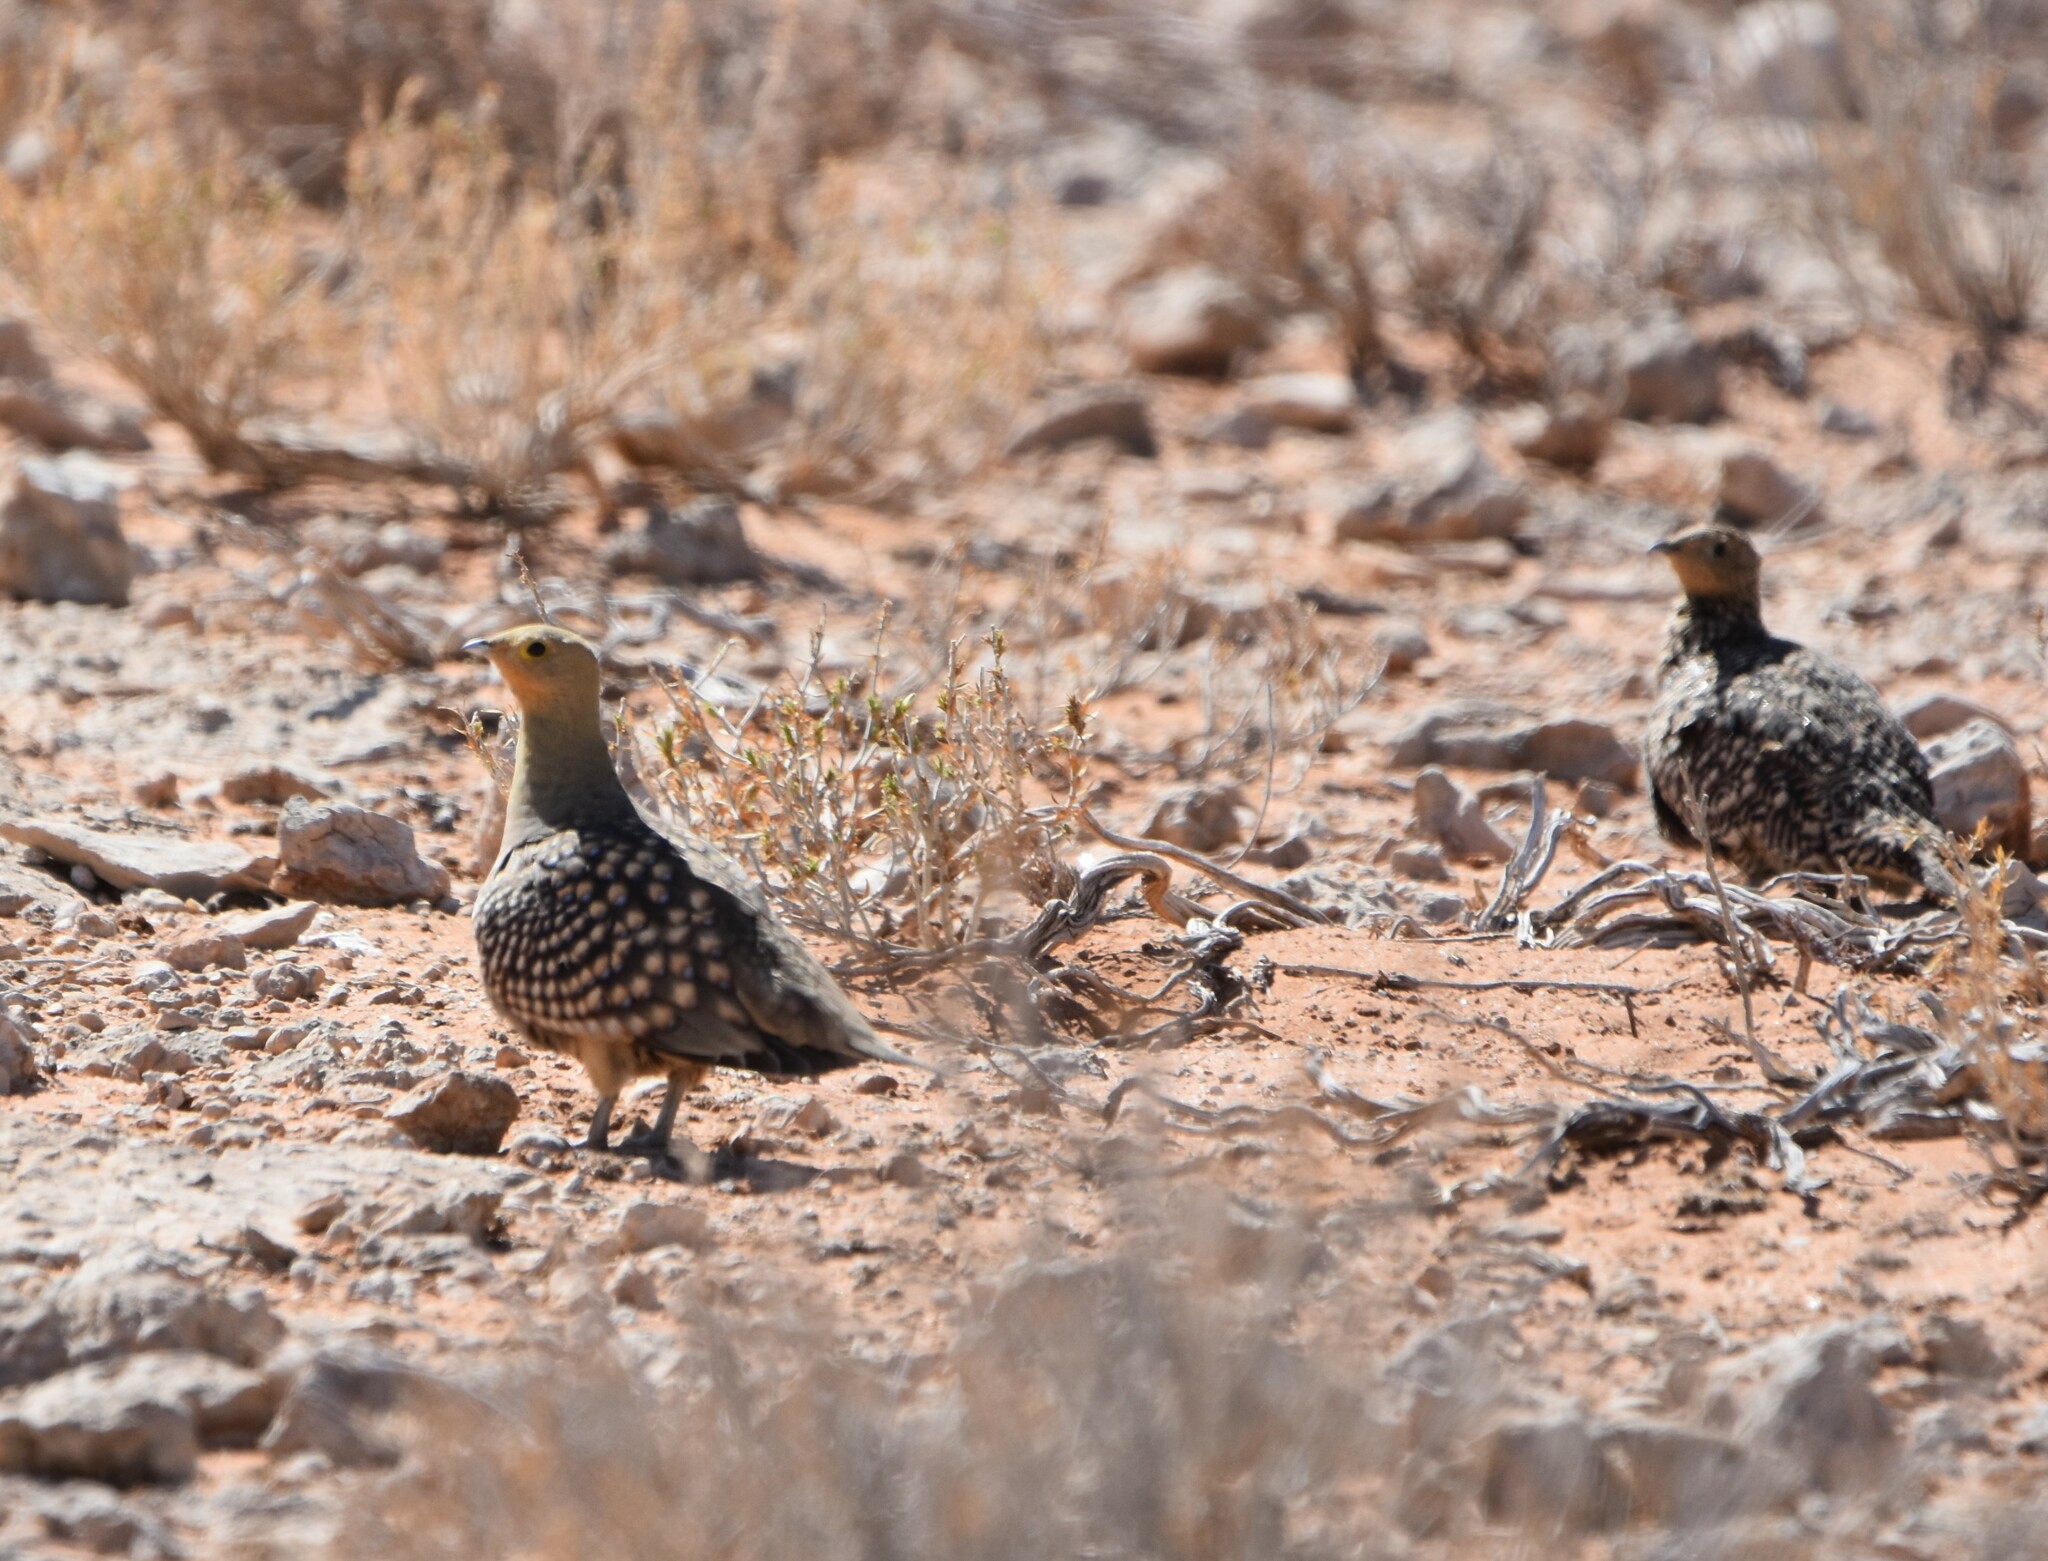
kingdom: Animalia
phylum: Chordata
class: Aves
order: Pteroclidiformes
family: Pteroclididae
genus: Pterocles
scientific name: Pterocles namaqua
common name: Namaqua sandgrouse
